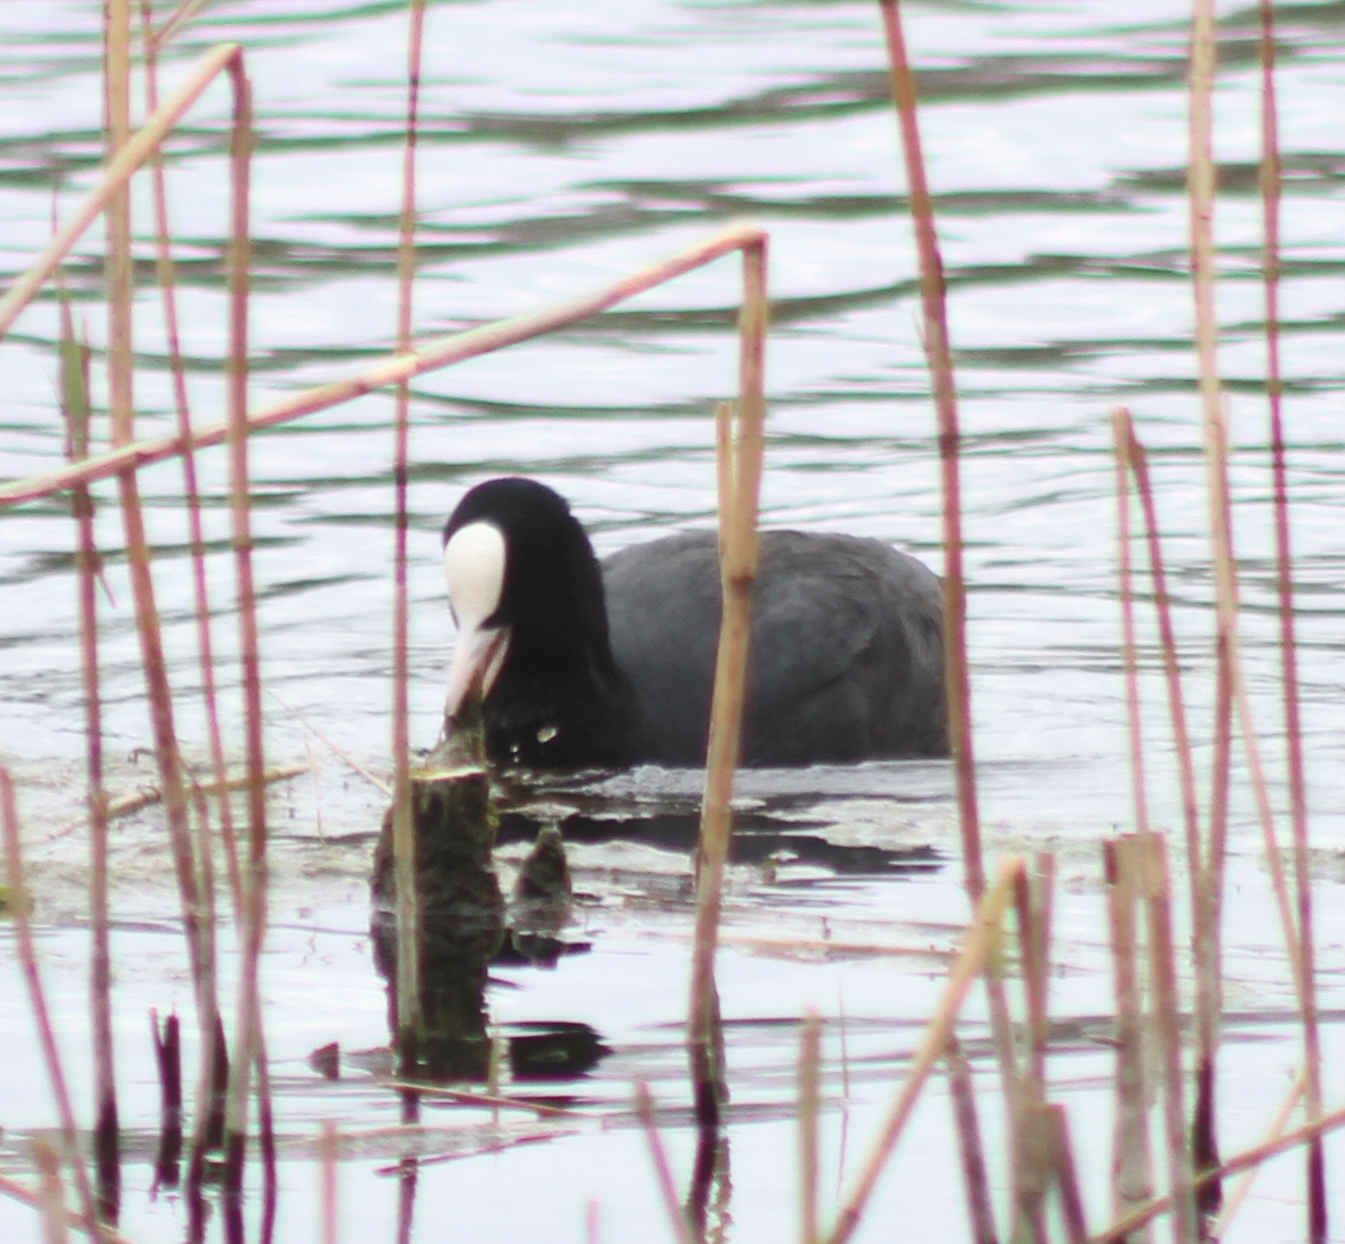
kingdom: Animalia
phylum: Chordata
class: Aves
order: Gruiformes
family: Rallidae
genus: Fulica
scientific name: Fulica atra
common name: Eurasian coot
